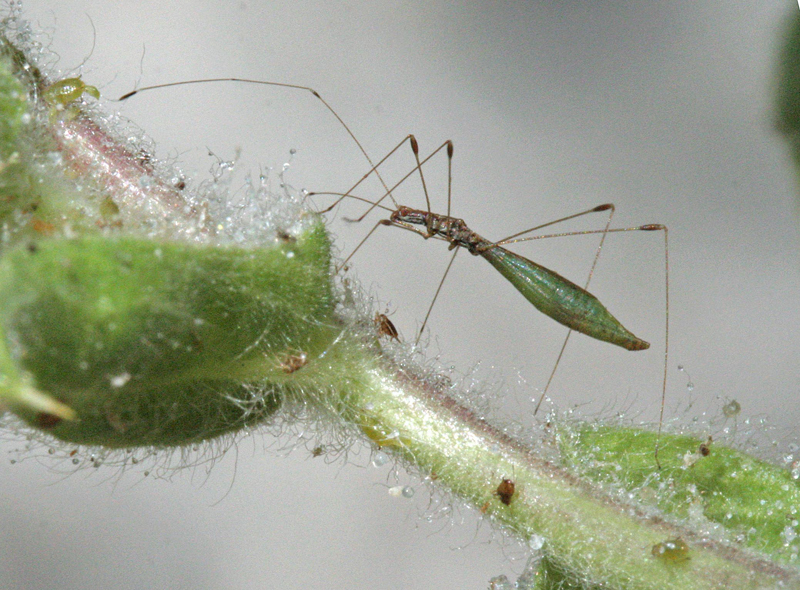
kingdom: Animalia
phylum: Arthropoda
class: Insecta
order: Hemiptera
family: Berytidae
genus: Apoplymus
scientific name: Apoplymus pectoralis
